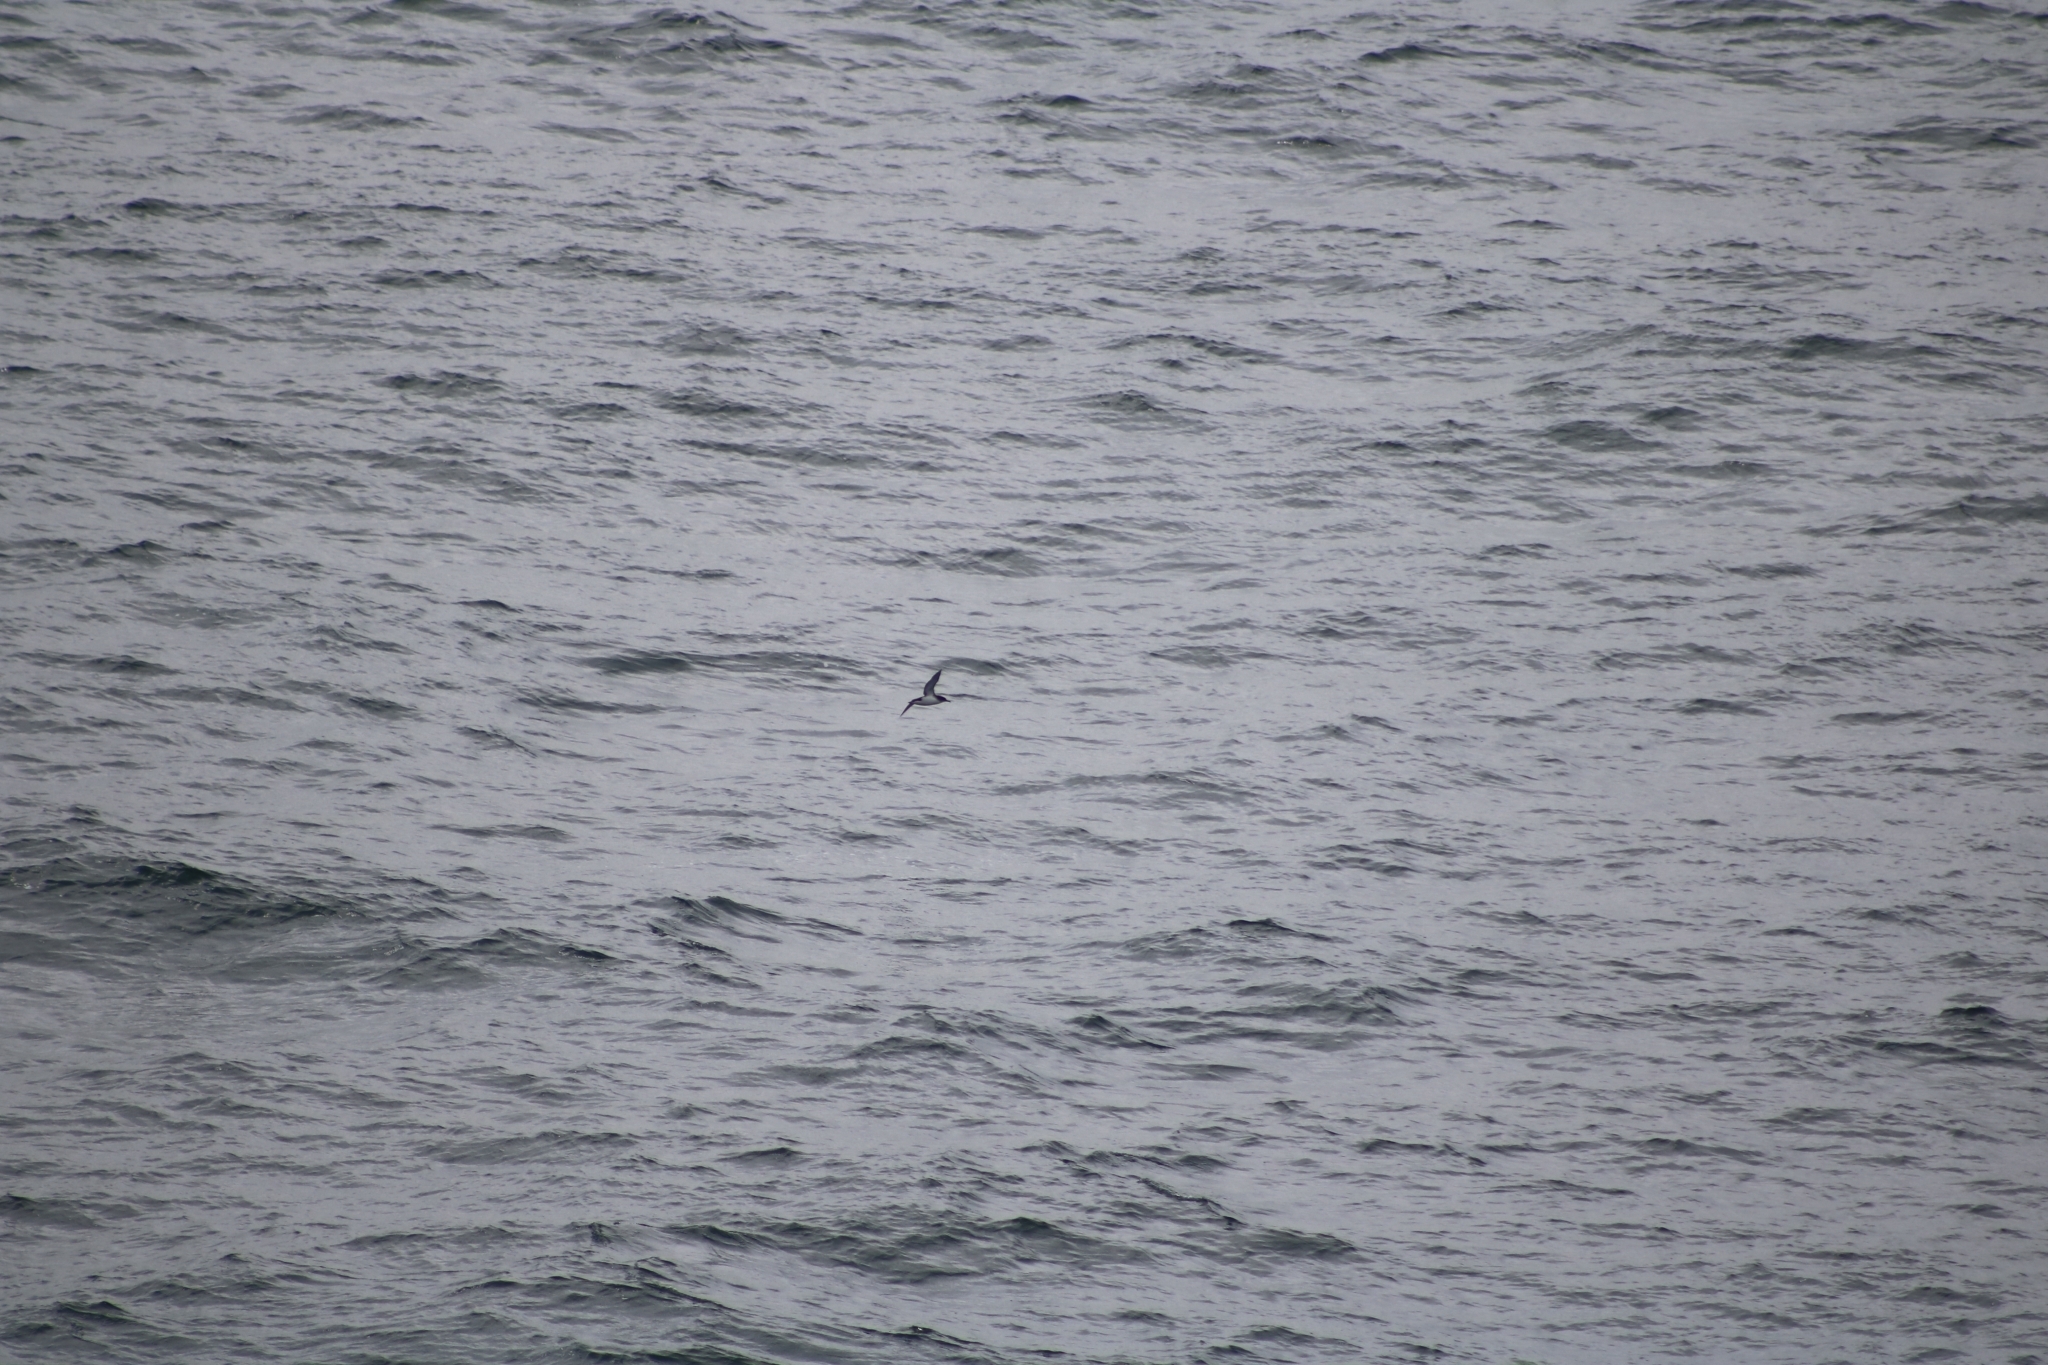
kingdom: Animalia
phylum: Chordata
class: Aves
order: Procellariiformes
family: Procellariidae
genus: Puffinus
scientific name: Puffinus puffinus
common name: Manx shearwater
